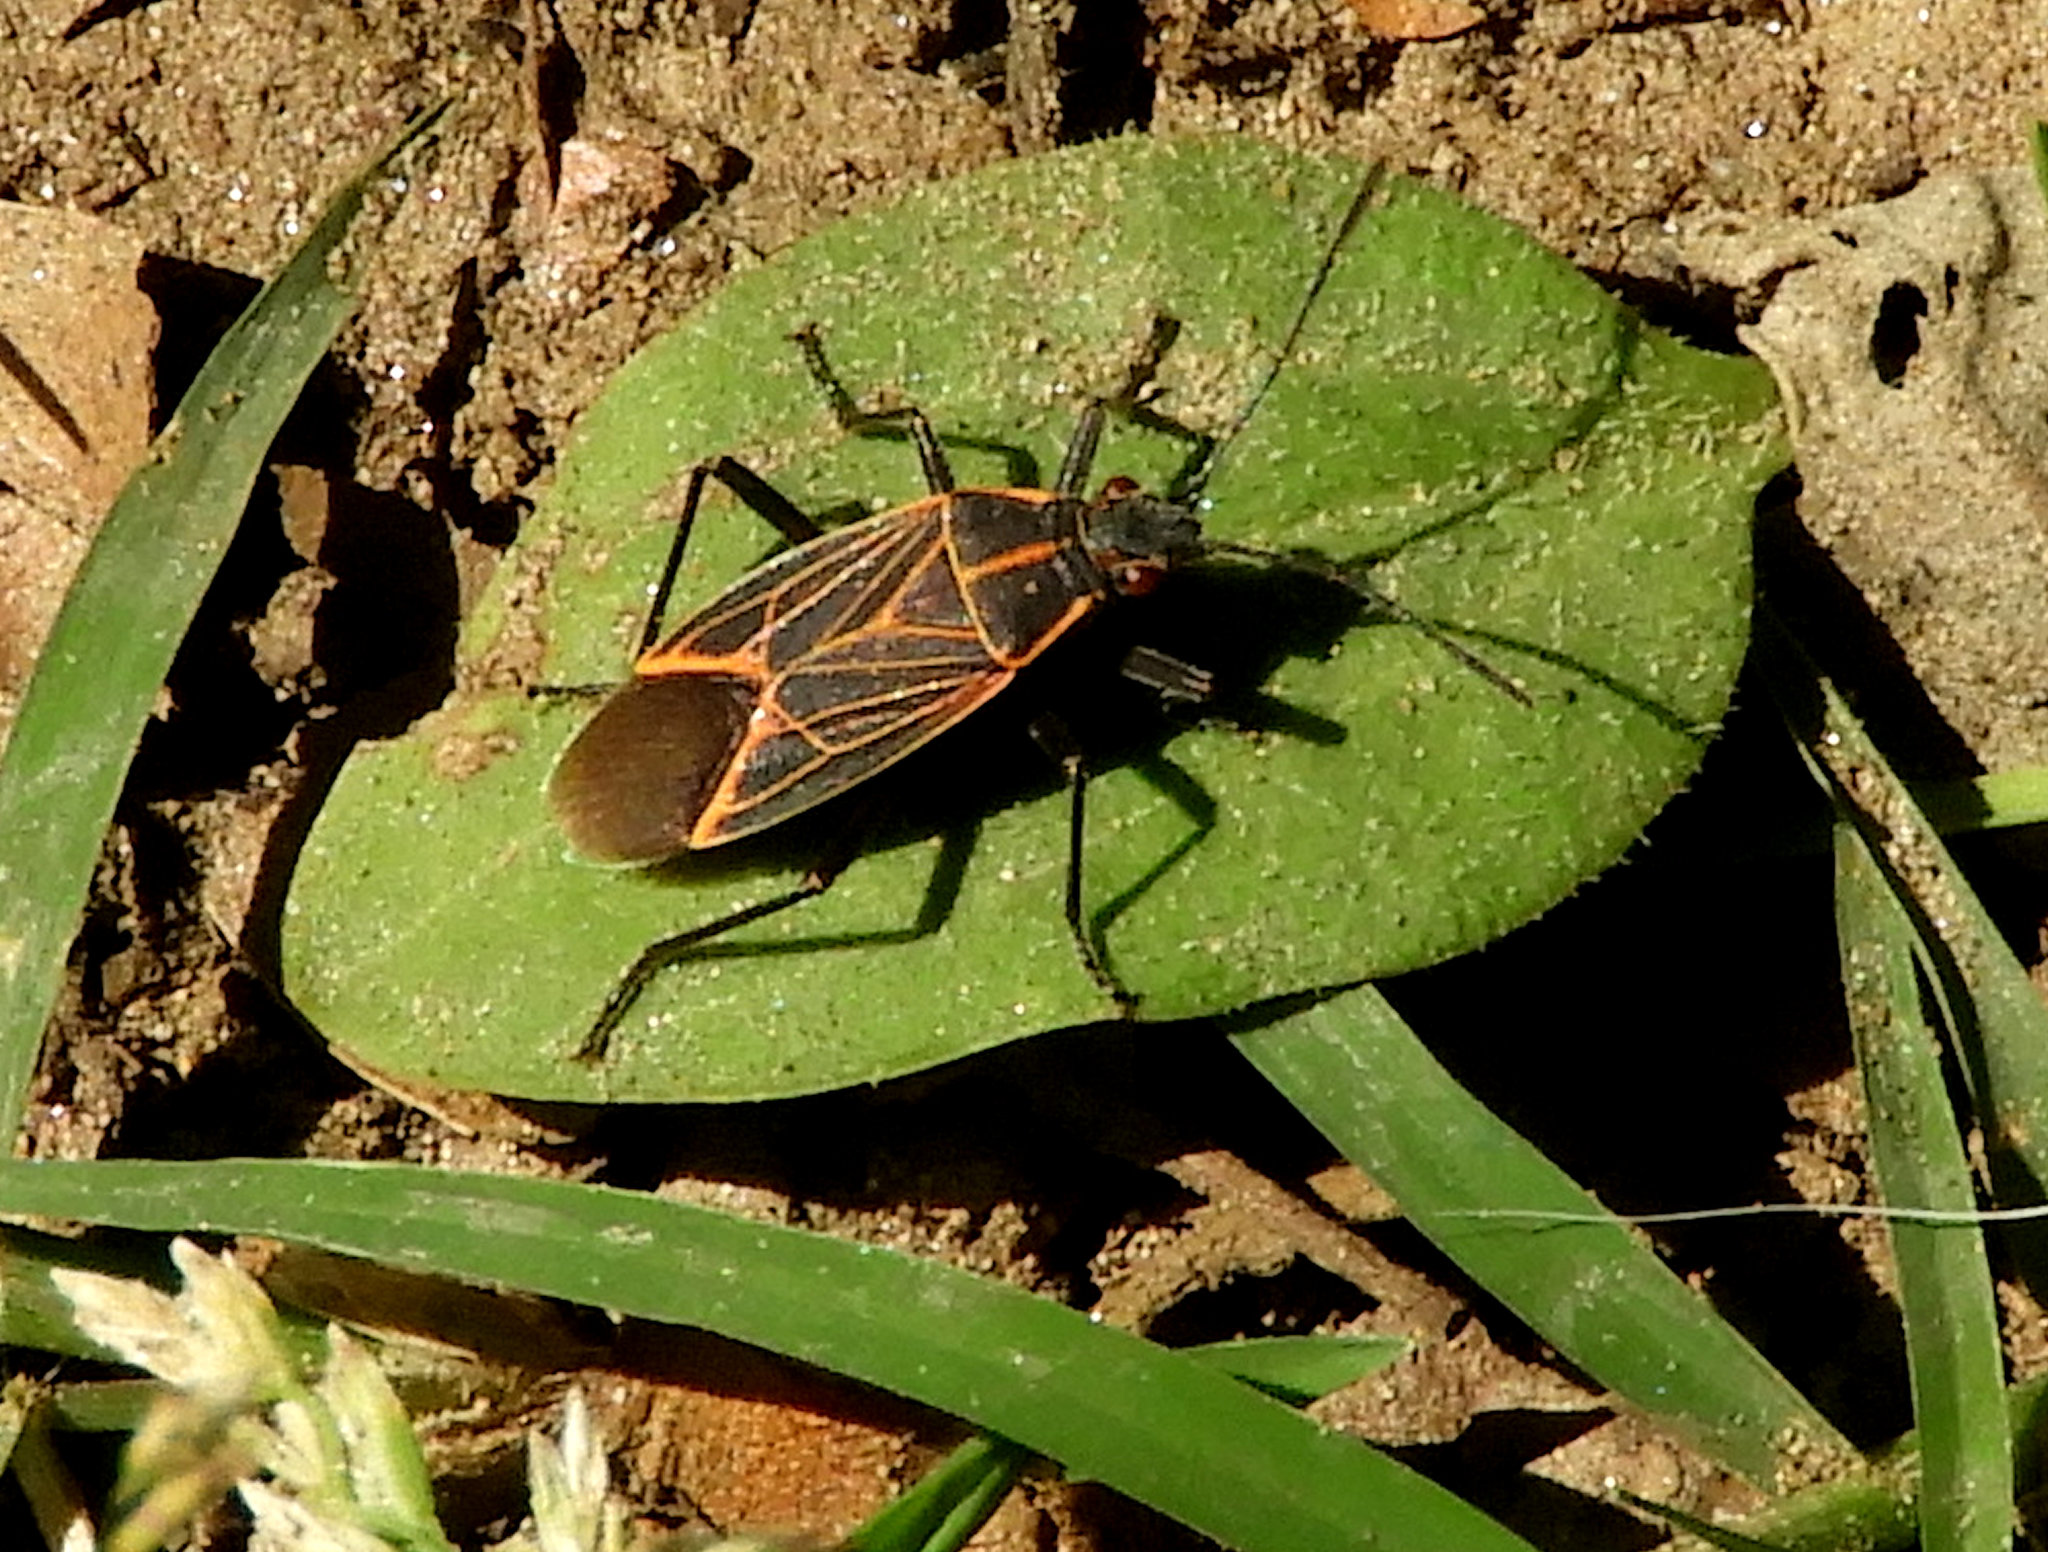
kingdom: Animalia
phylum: Arthropoda
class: Insecta
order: Hemiptera
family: Rhopalidae
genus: Boisea
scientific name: Boisea rubrolineata
